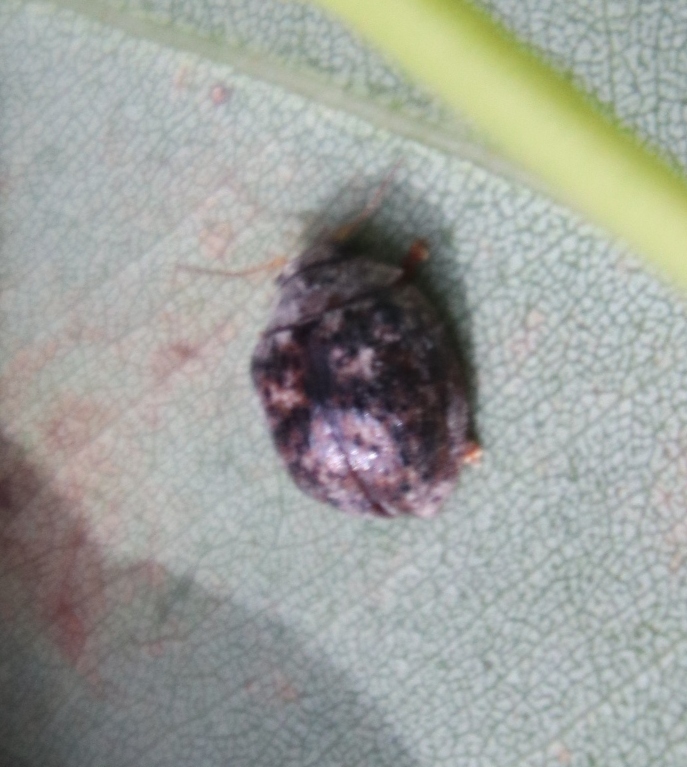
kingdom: Animalia
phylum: Arthropoda
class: Insecta
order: Coleoptera
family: Chrysomelidae
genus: Trachymela
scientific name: Trachymela
